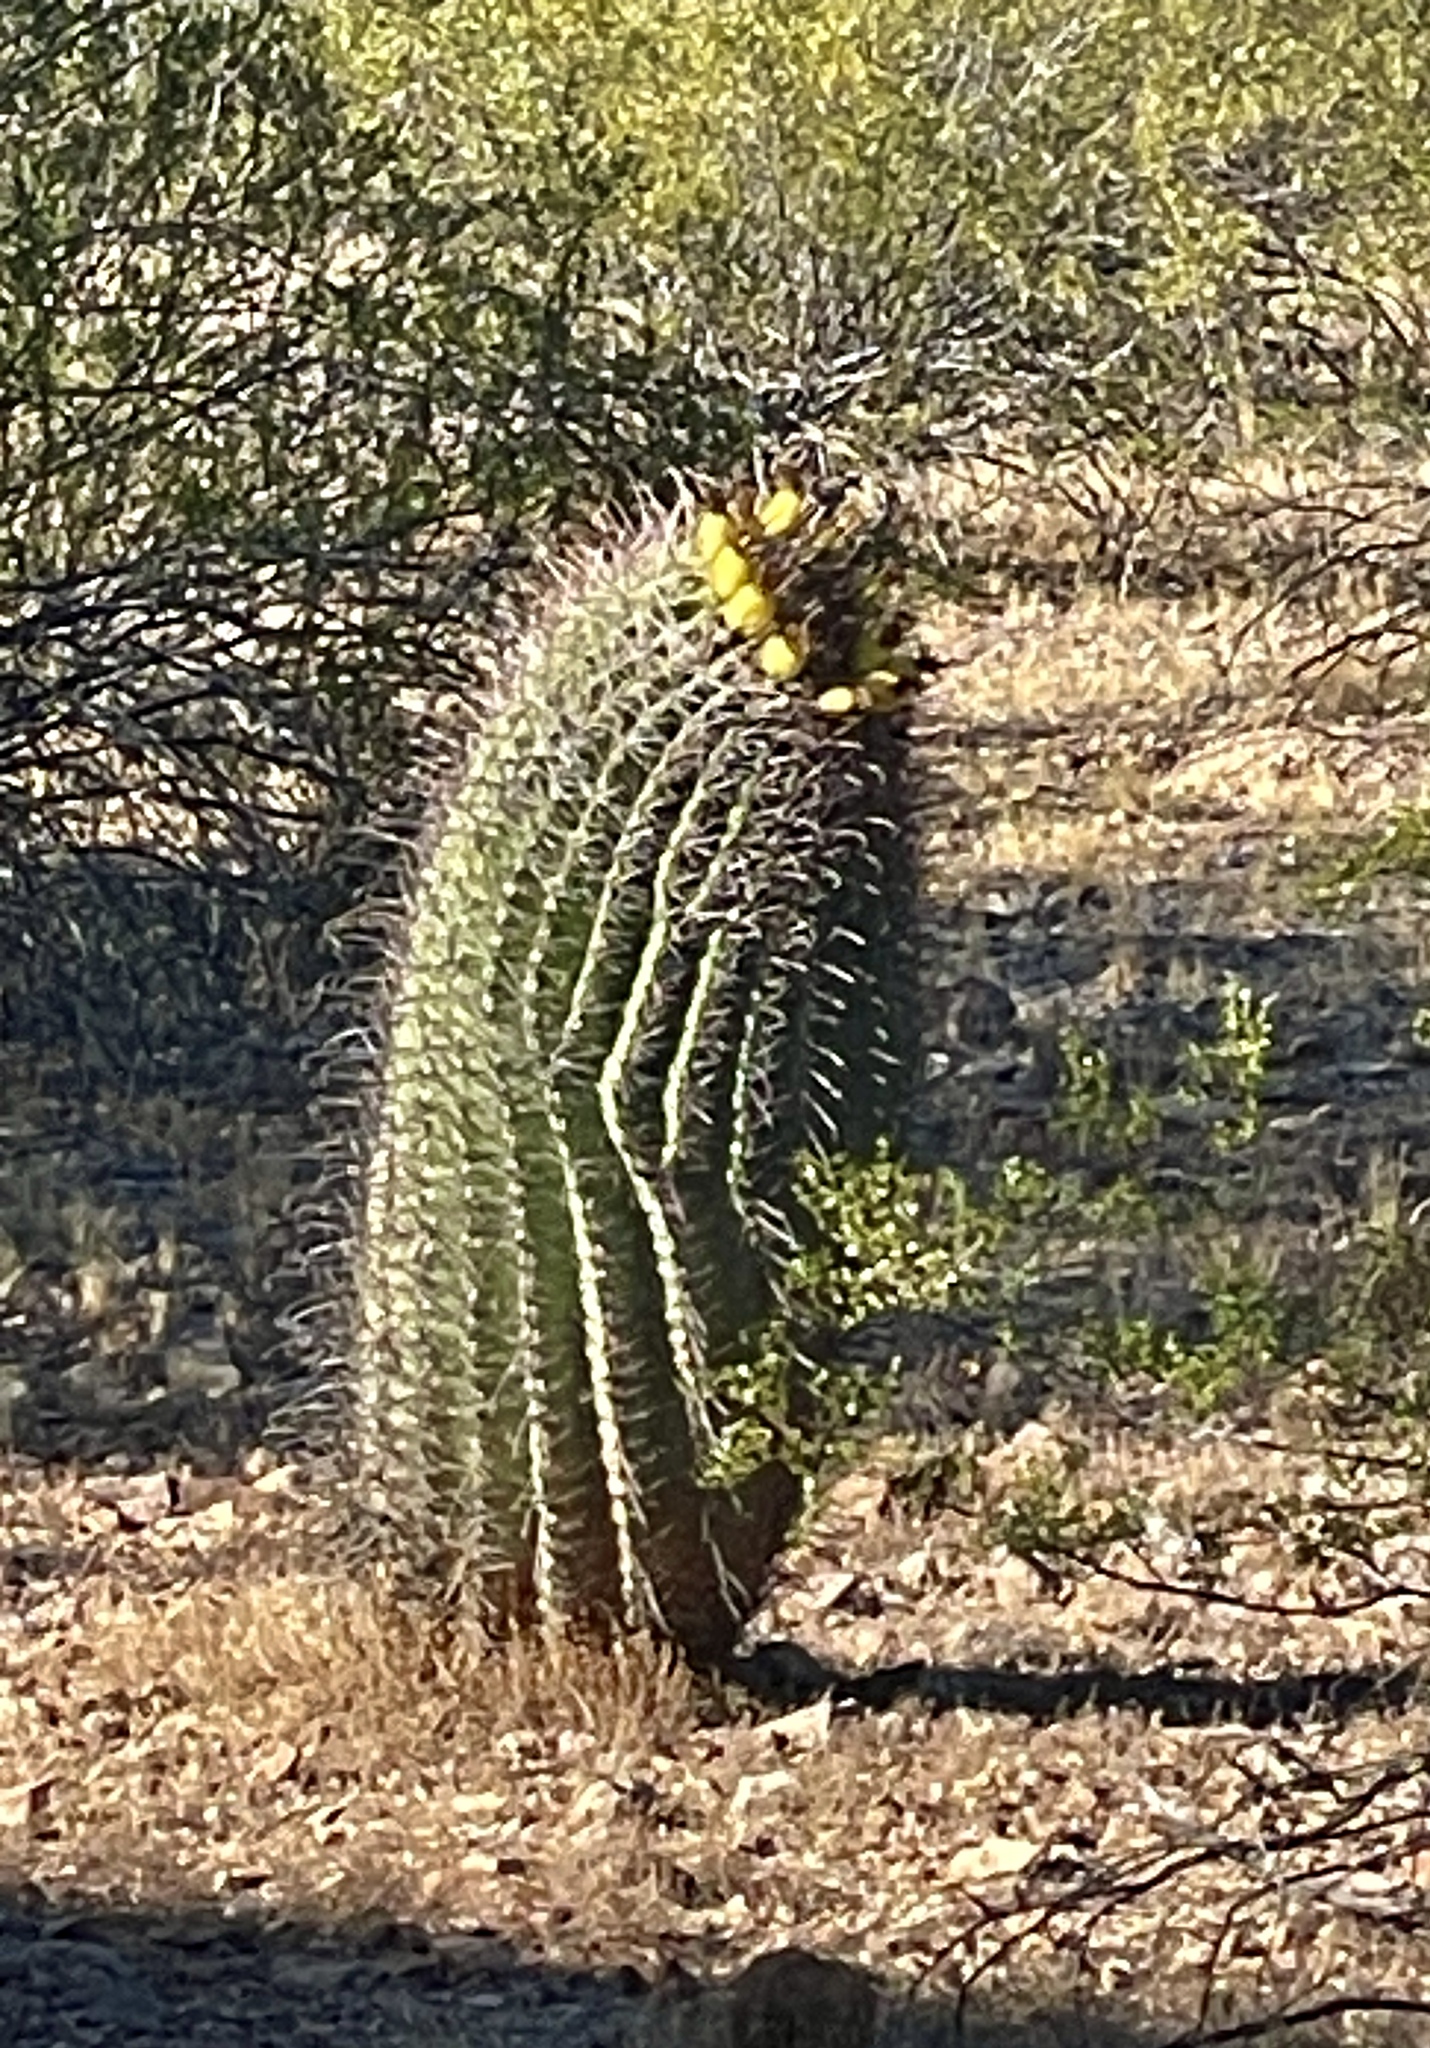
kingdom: Plantae
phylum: Tracheophyta
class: Magnoliopsida
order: Caryophyllales
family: Cactaceae
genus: Ferocactus
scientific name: Ferocactus wislizeni
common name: Candy barrel cactus
